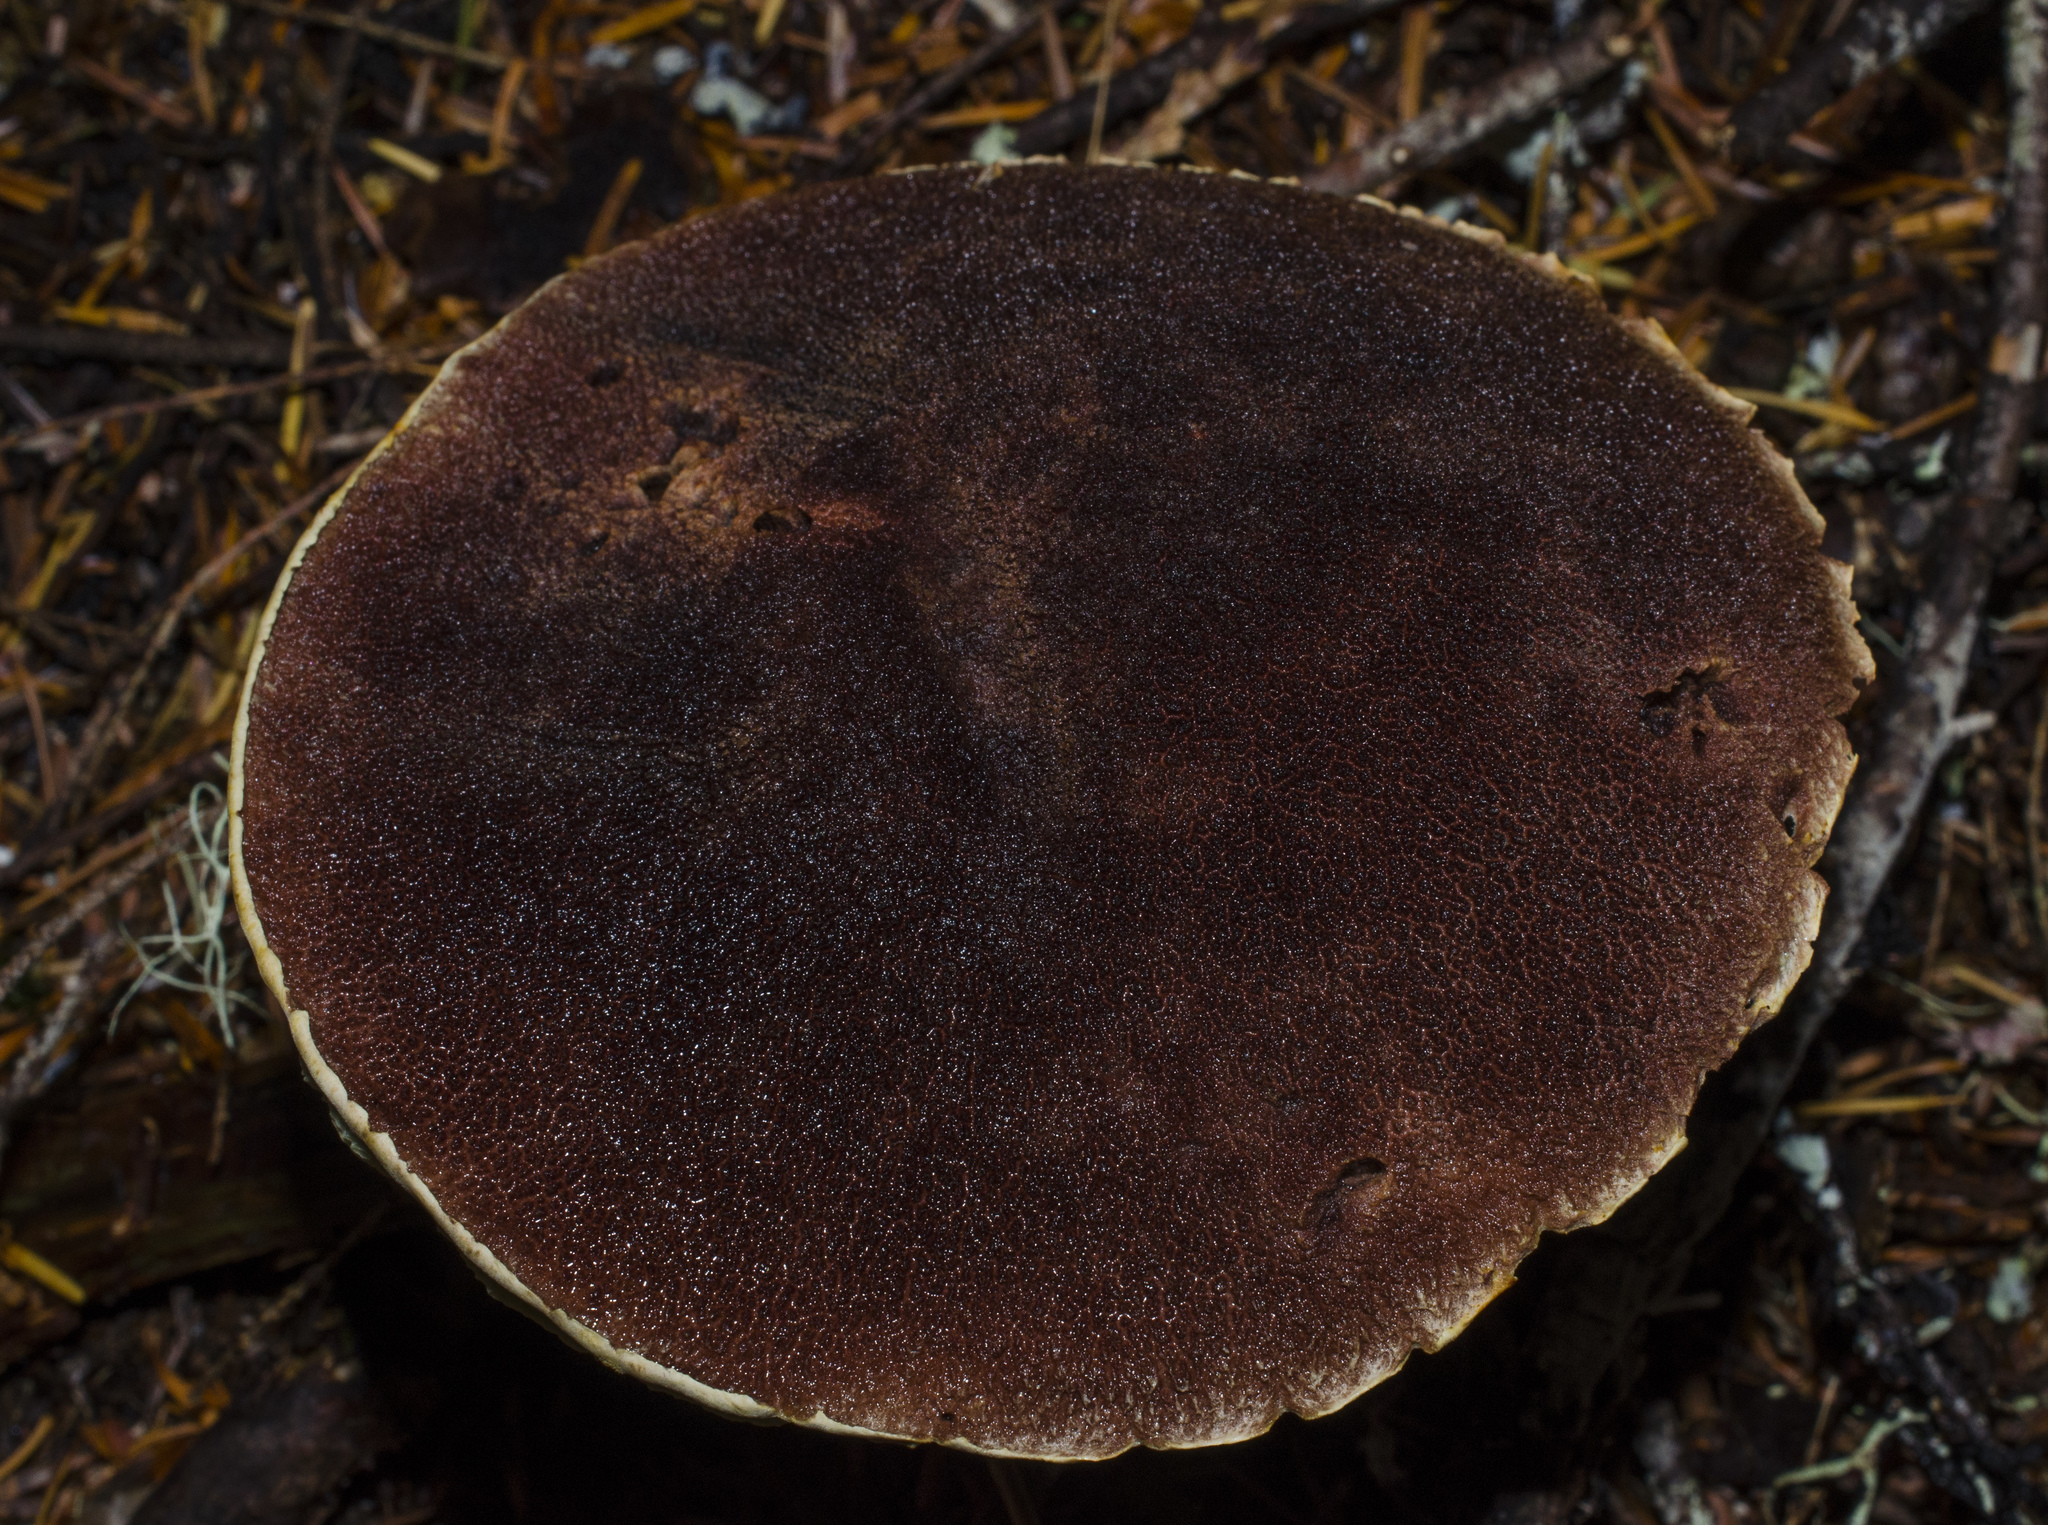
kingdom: Fungi
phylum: Basidiomycota
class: Agaricomycetes
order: Boletales
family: Boletaceae
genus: Aureoboletus
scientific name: Aureoboletus mirabilis
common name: Admirable bolete
